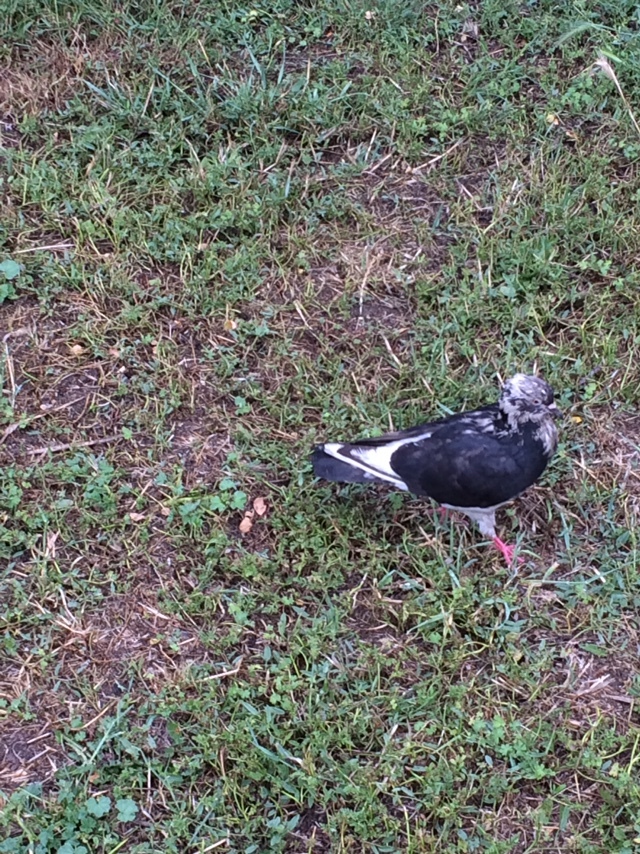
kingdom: Animalia
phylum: Chordata
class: Aves
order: Columbiformes
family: Columbidae
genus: Columba
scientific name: Columba livia
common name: Rock pigeon
